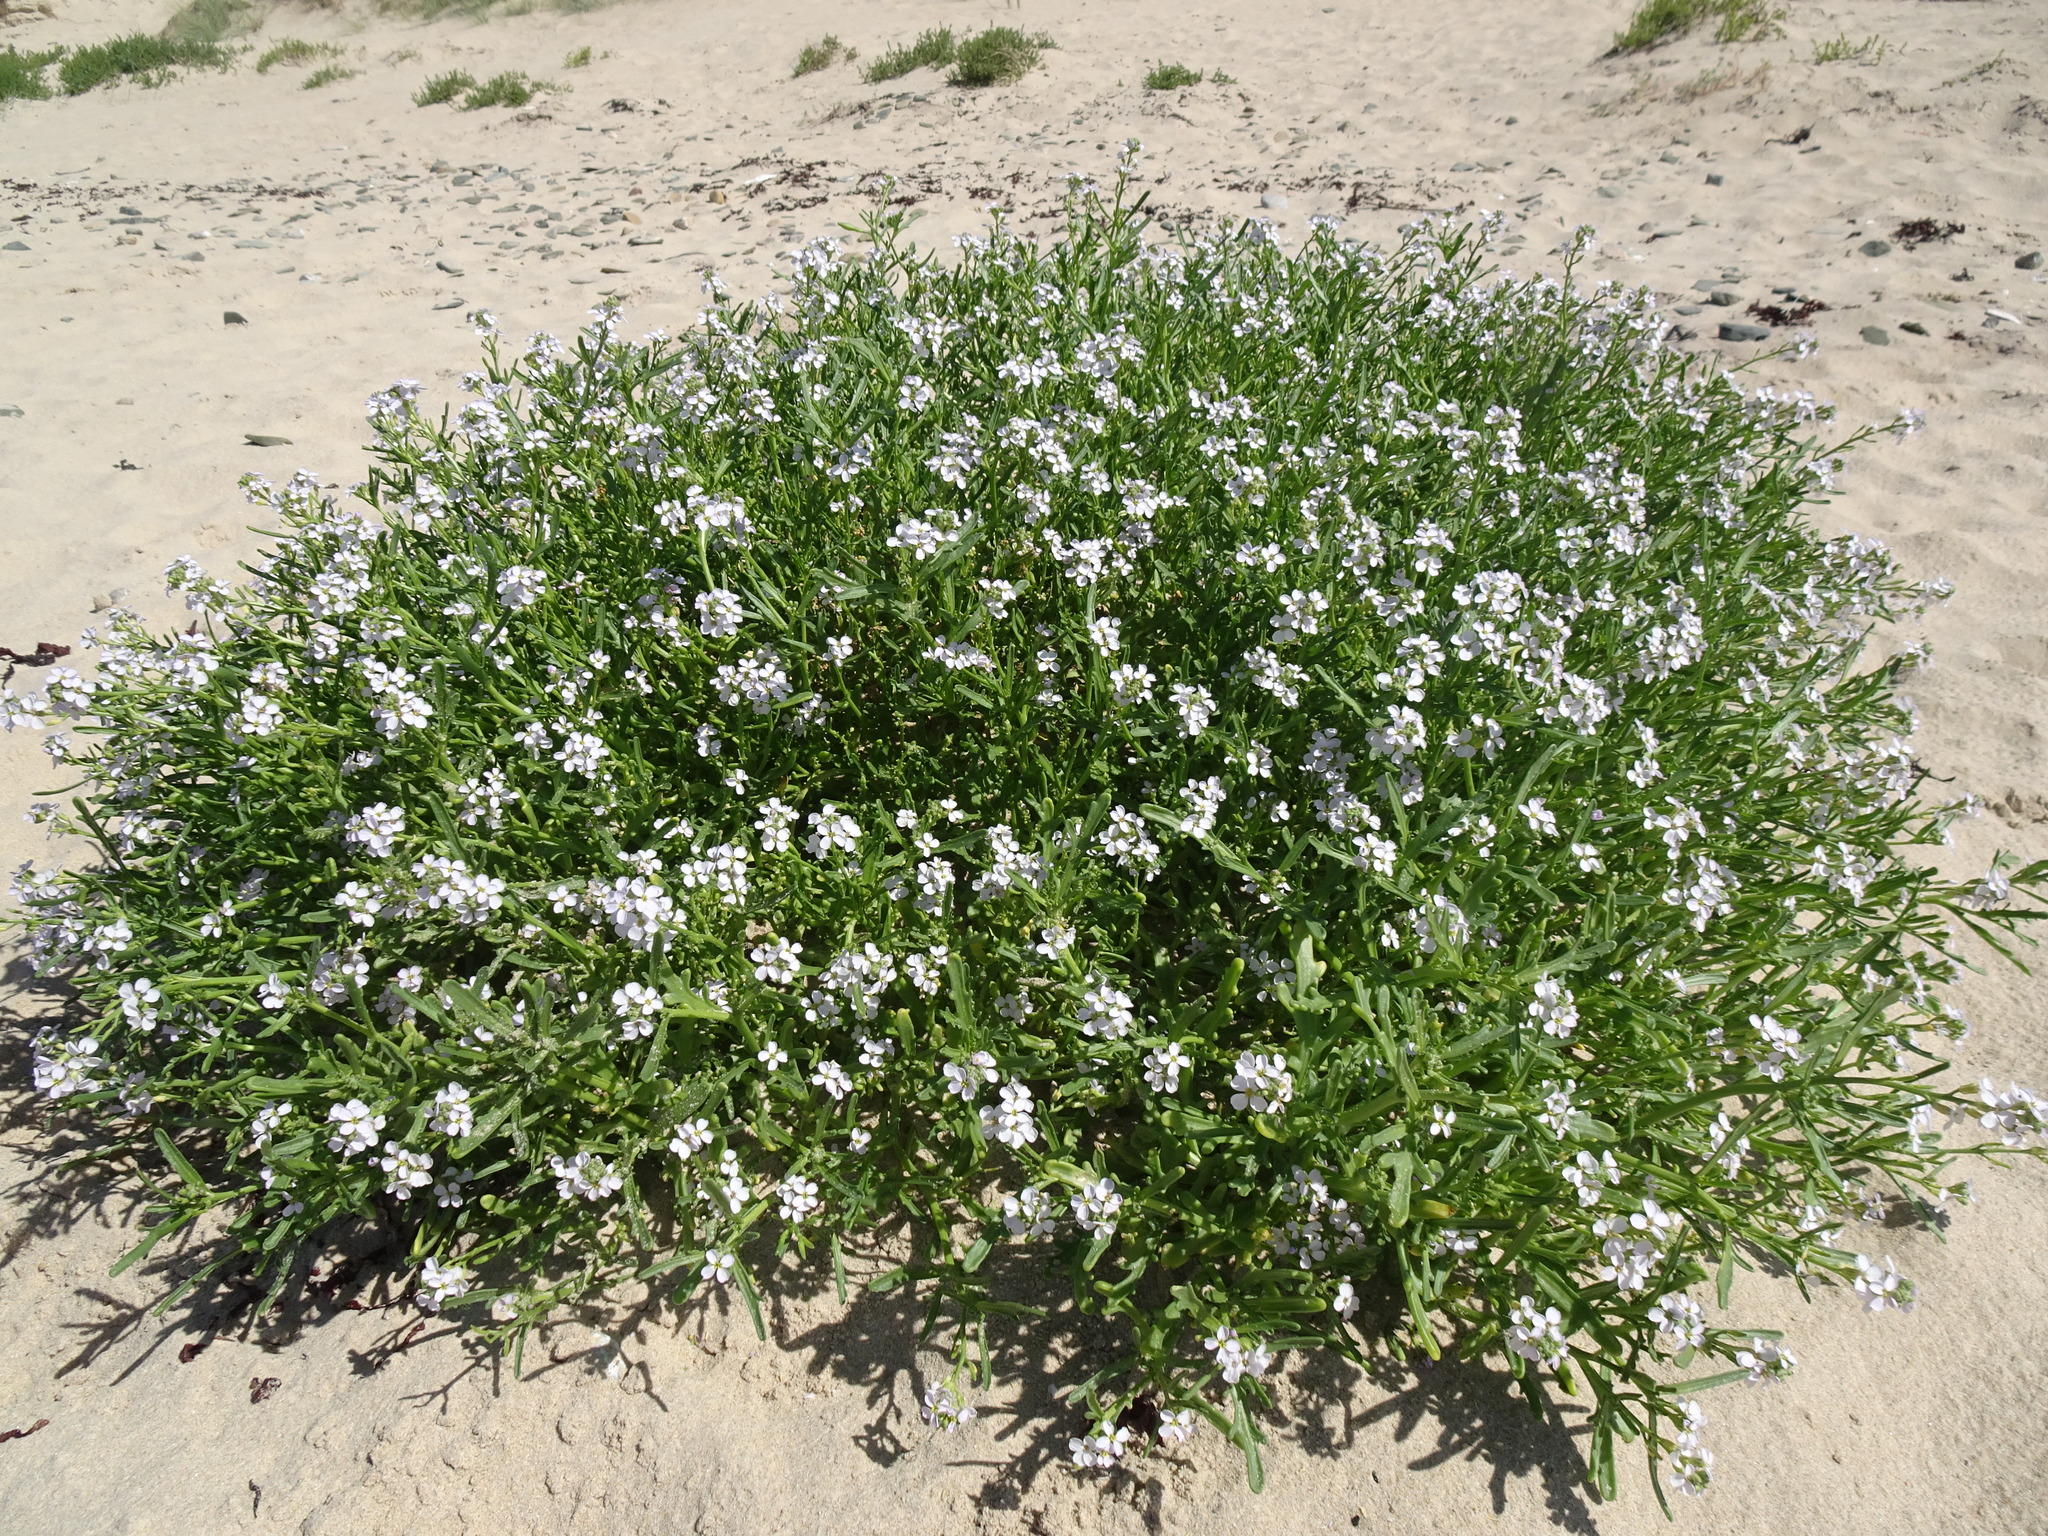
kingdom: Plantae
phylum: Tracheophyta
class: Magnoliopsida
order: Brassicales
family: Brassicaceae
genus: Cakile
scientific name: Cakile maritima
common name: Sea rocket
